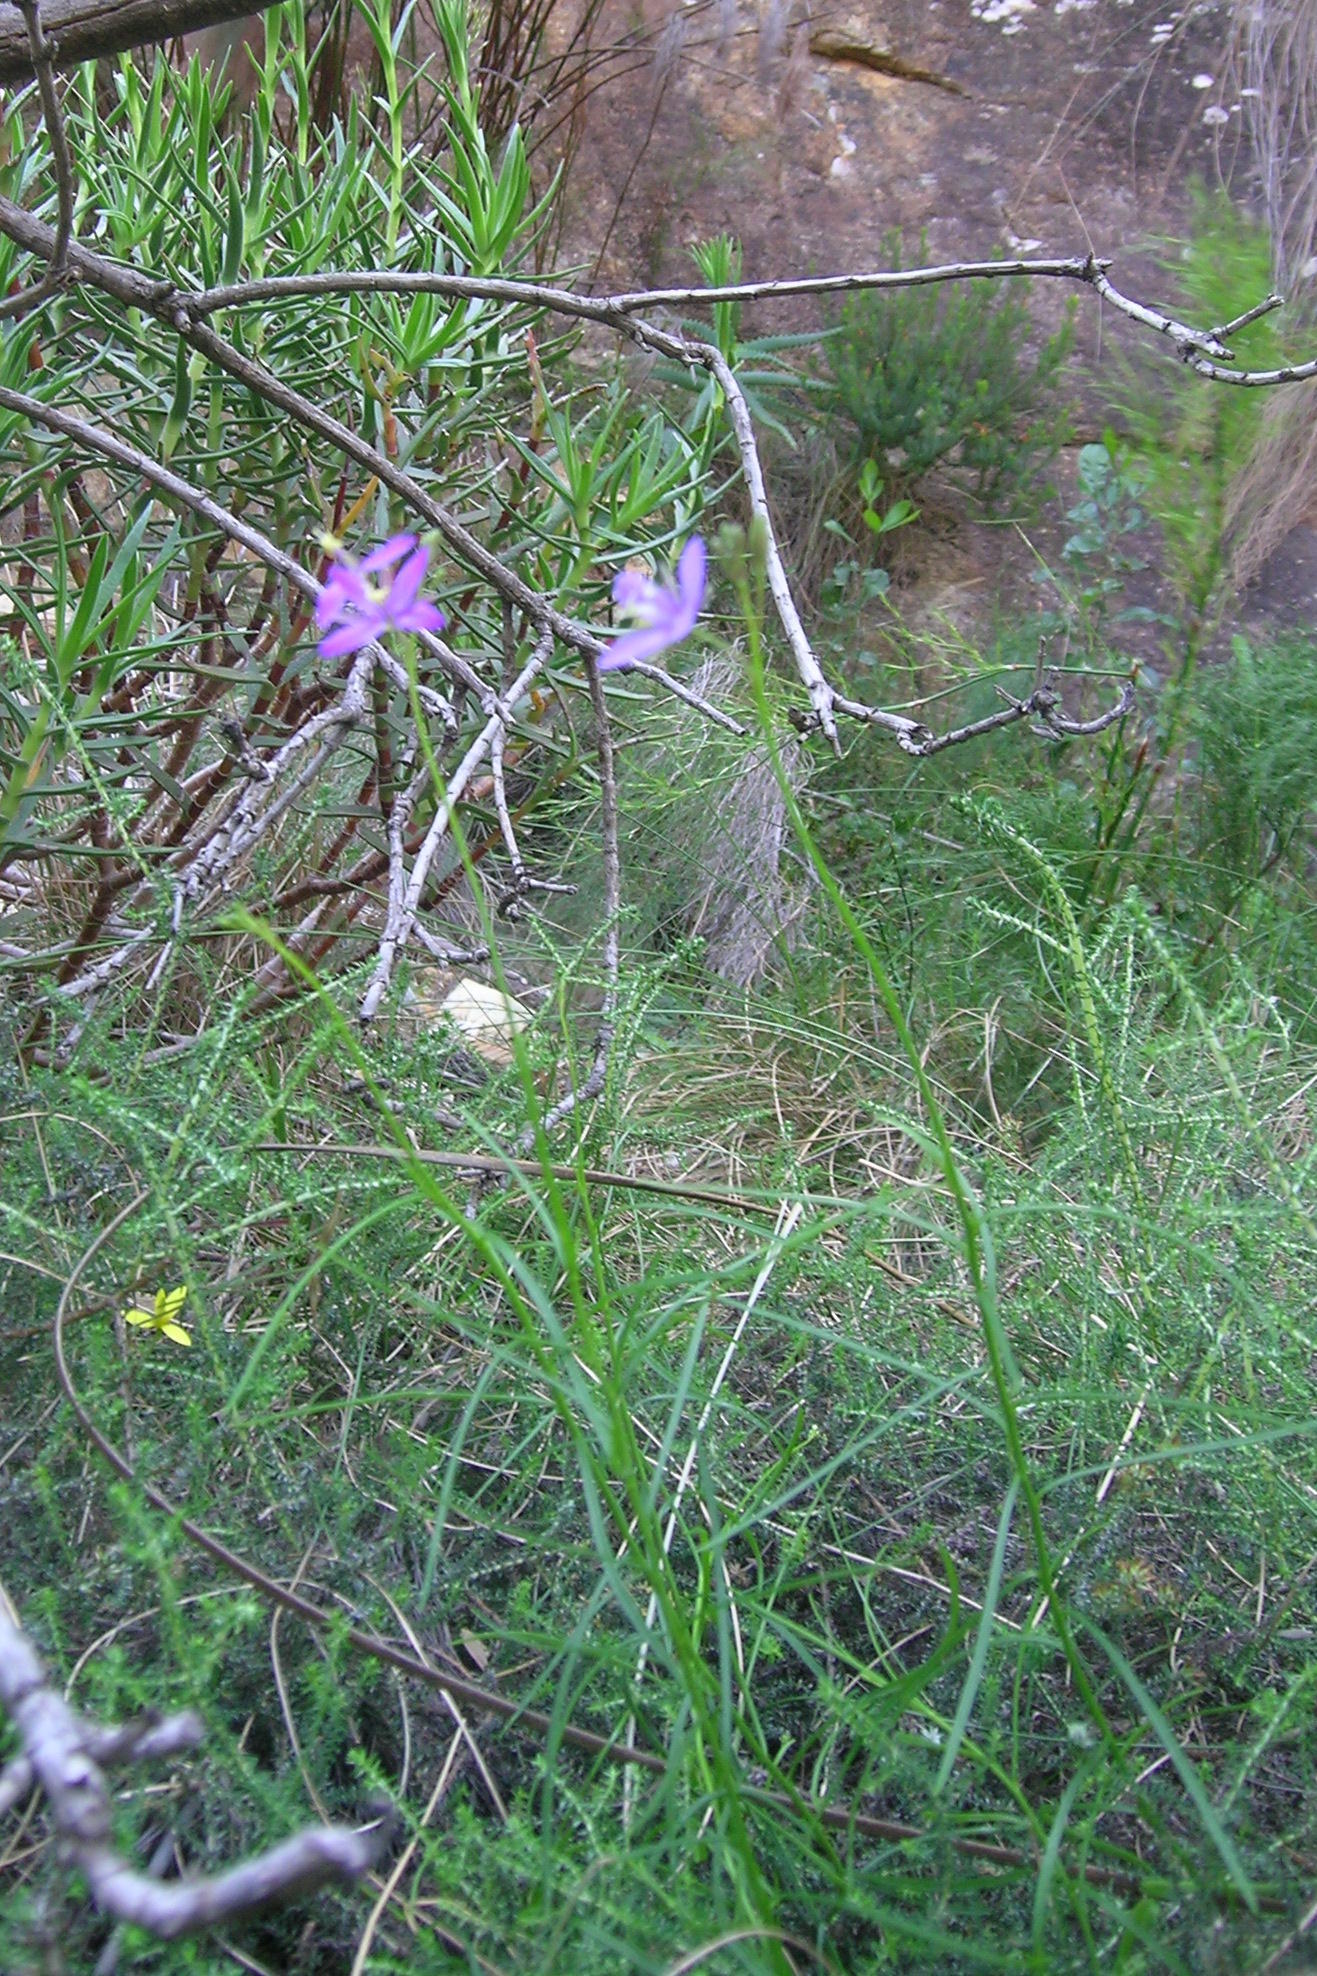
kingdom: Plantae
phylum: Tracheophyta
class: Magnoliopsida
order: Brassicales
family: Brassicaceae
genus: Heliophila
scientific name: Heliophila subulata
